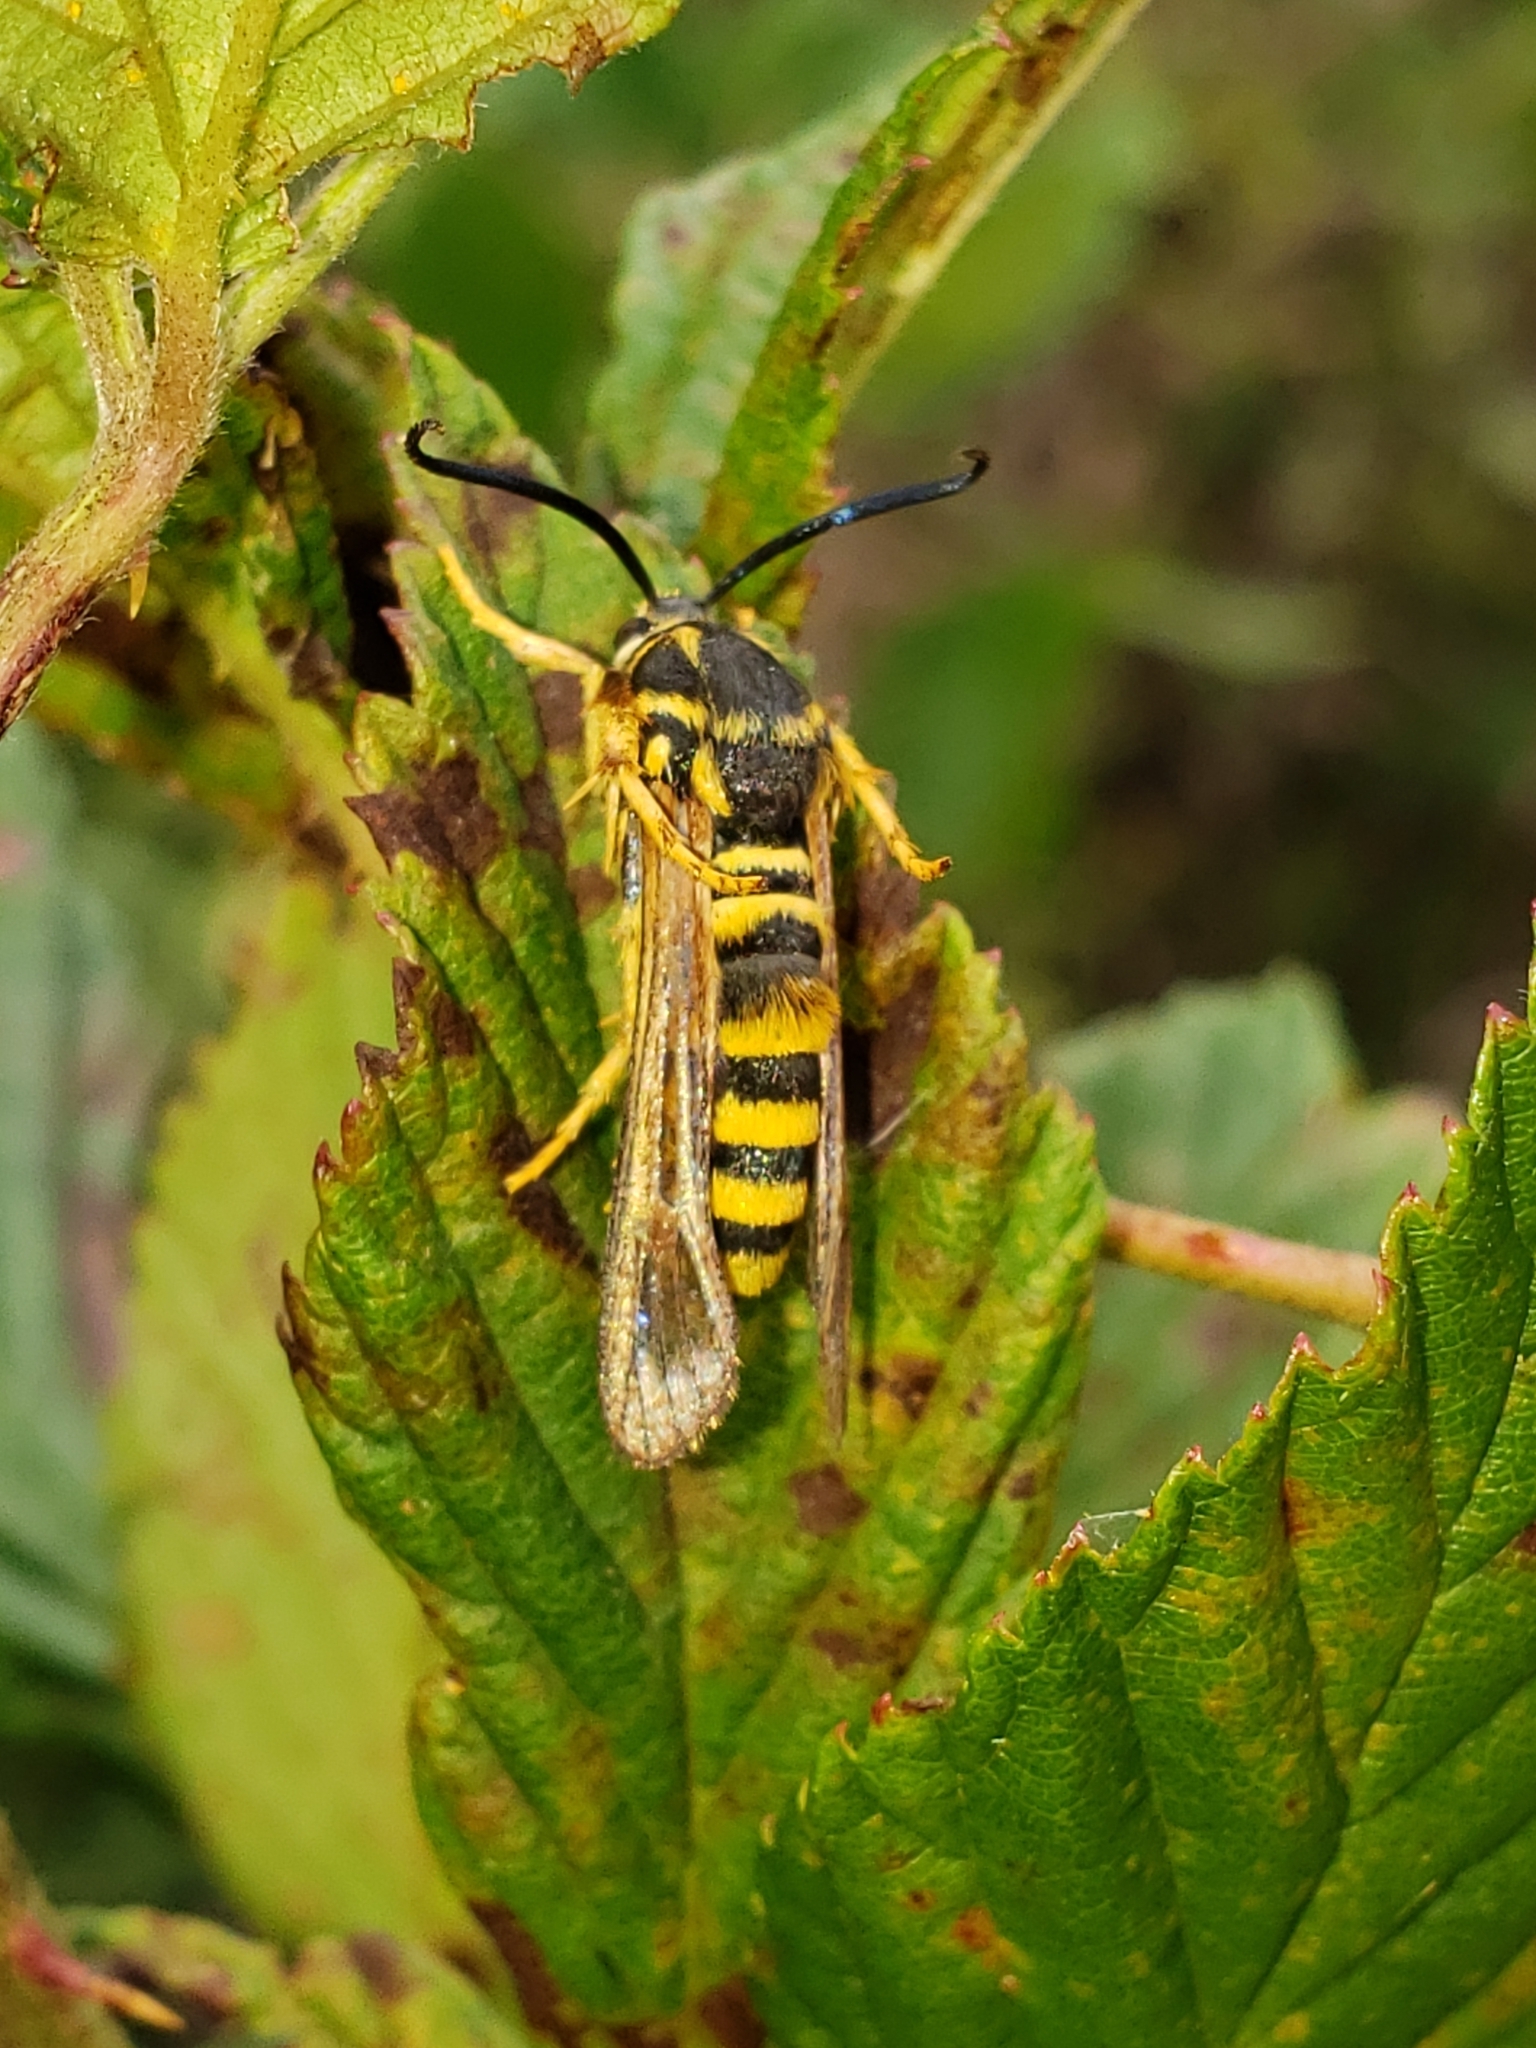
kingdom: Animalia
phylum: Arthropoda
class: Insecta
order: Lepidoptera
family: Sesiidae
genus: Pennisetia
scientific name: Pennisetia marginatum
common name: Raspberry crown borer
